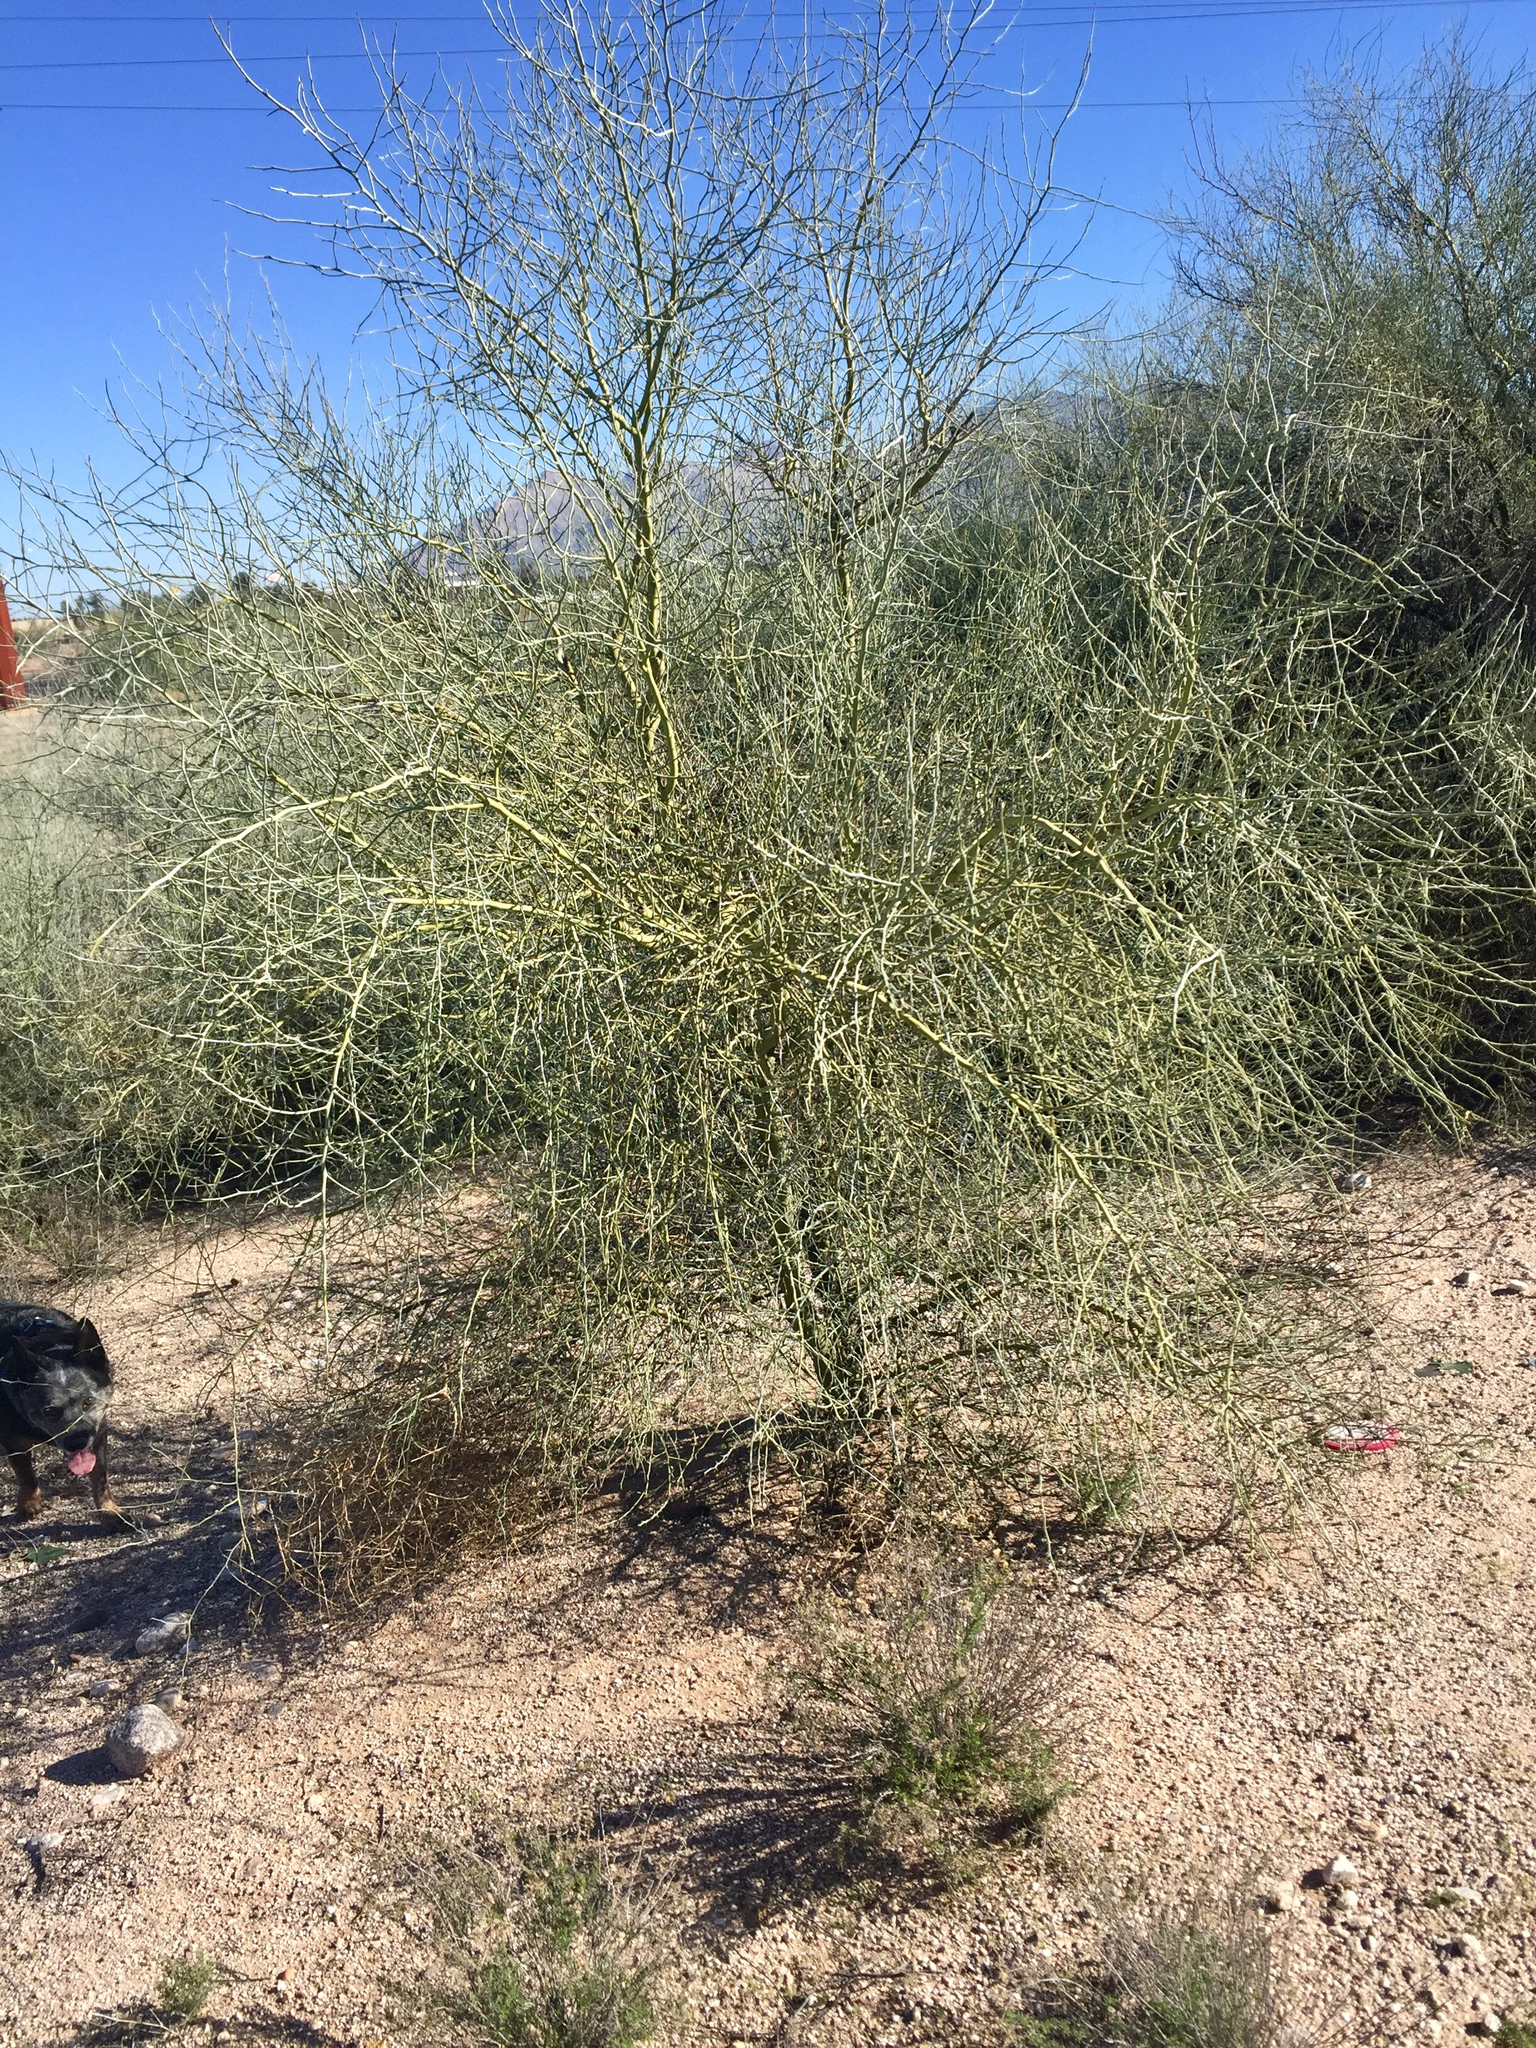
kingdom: Plantae
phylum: Tracheophyta
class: Magnoliopsida
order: Fabales
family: Fabaceae
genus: Parkinsonia
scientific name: Parkinsonia florida
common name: Blue paloverde
